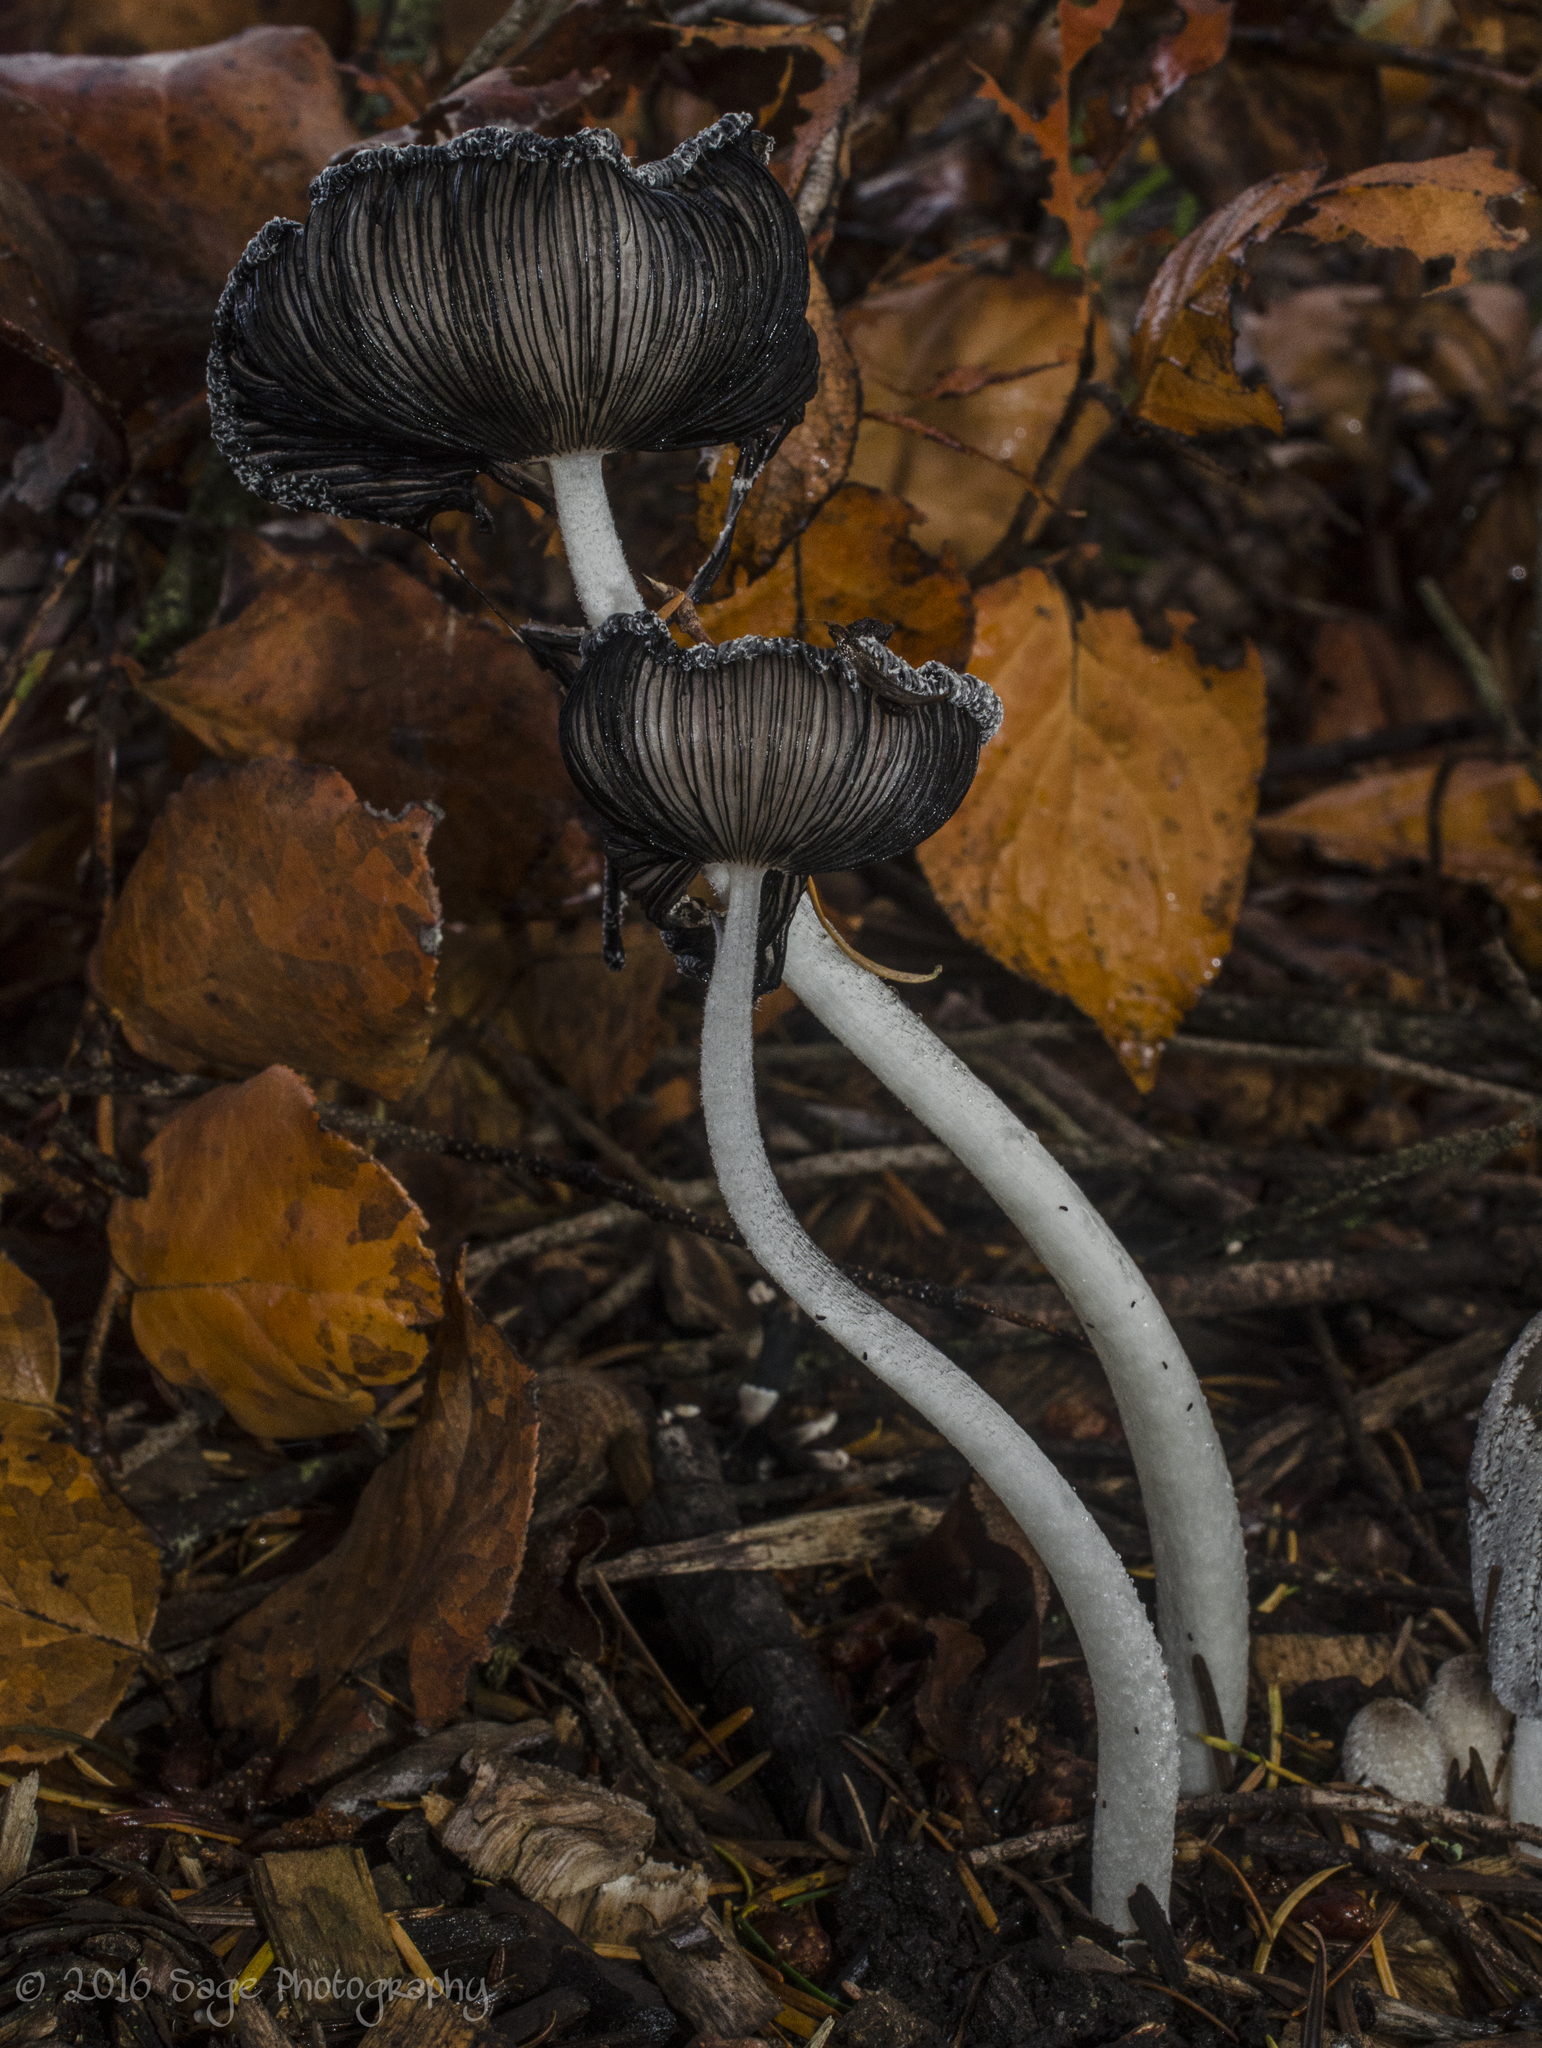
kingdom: Fungi
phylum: Basidiomycota
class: Agaricomycetes
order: Agaricales
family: Psathyrellaceae
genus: Coprinopsis
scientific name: Coprinopsis lagopus
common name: Hare'sfoot inkcap
